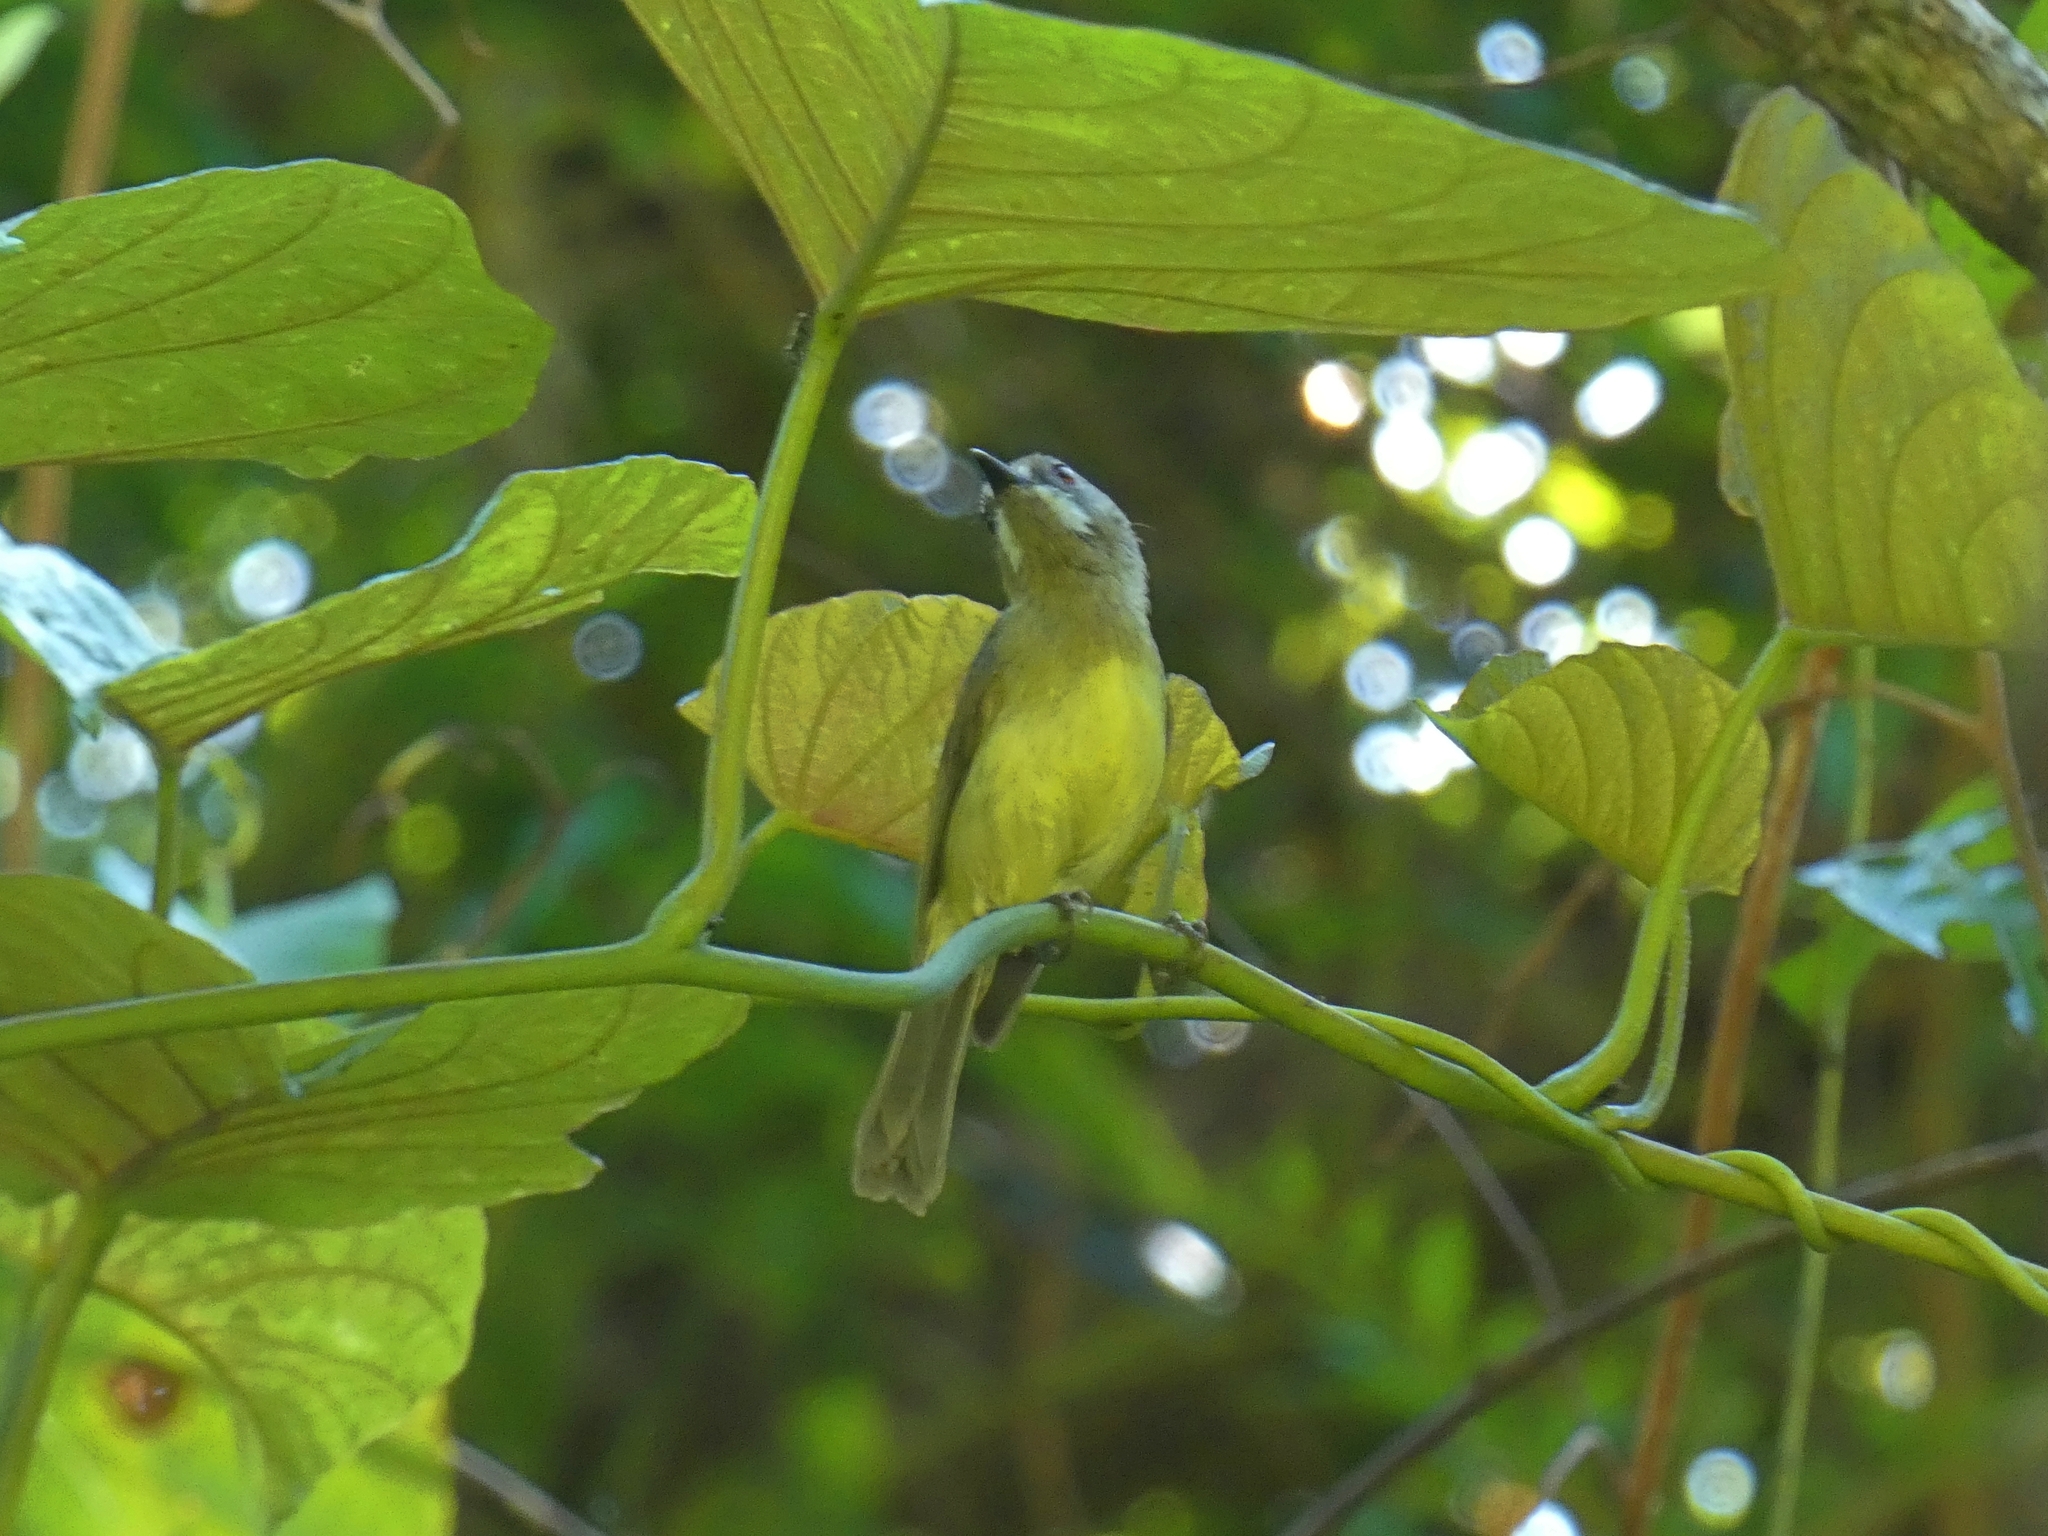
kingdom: Animalia
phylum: Chordata
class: Aves
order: Passeriformes
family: Acanthizidae
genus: Gerygone
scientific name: Gerygone palpebrosa
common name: Fairy gerygone
